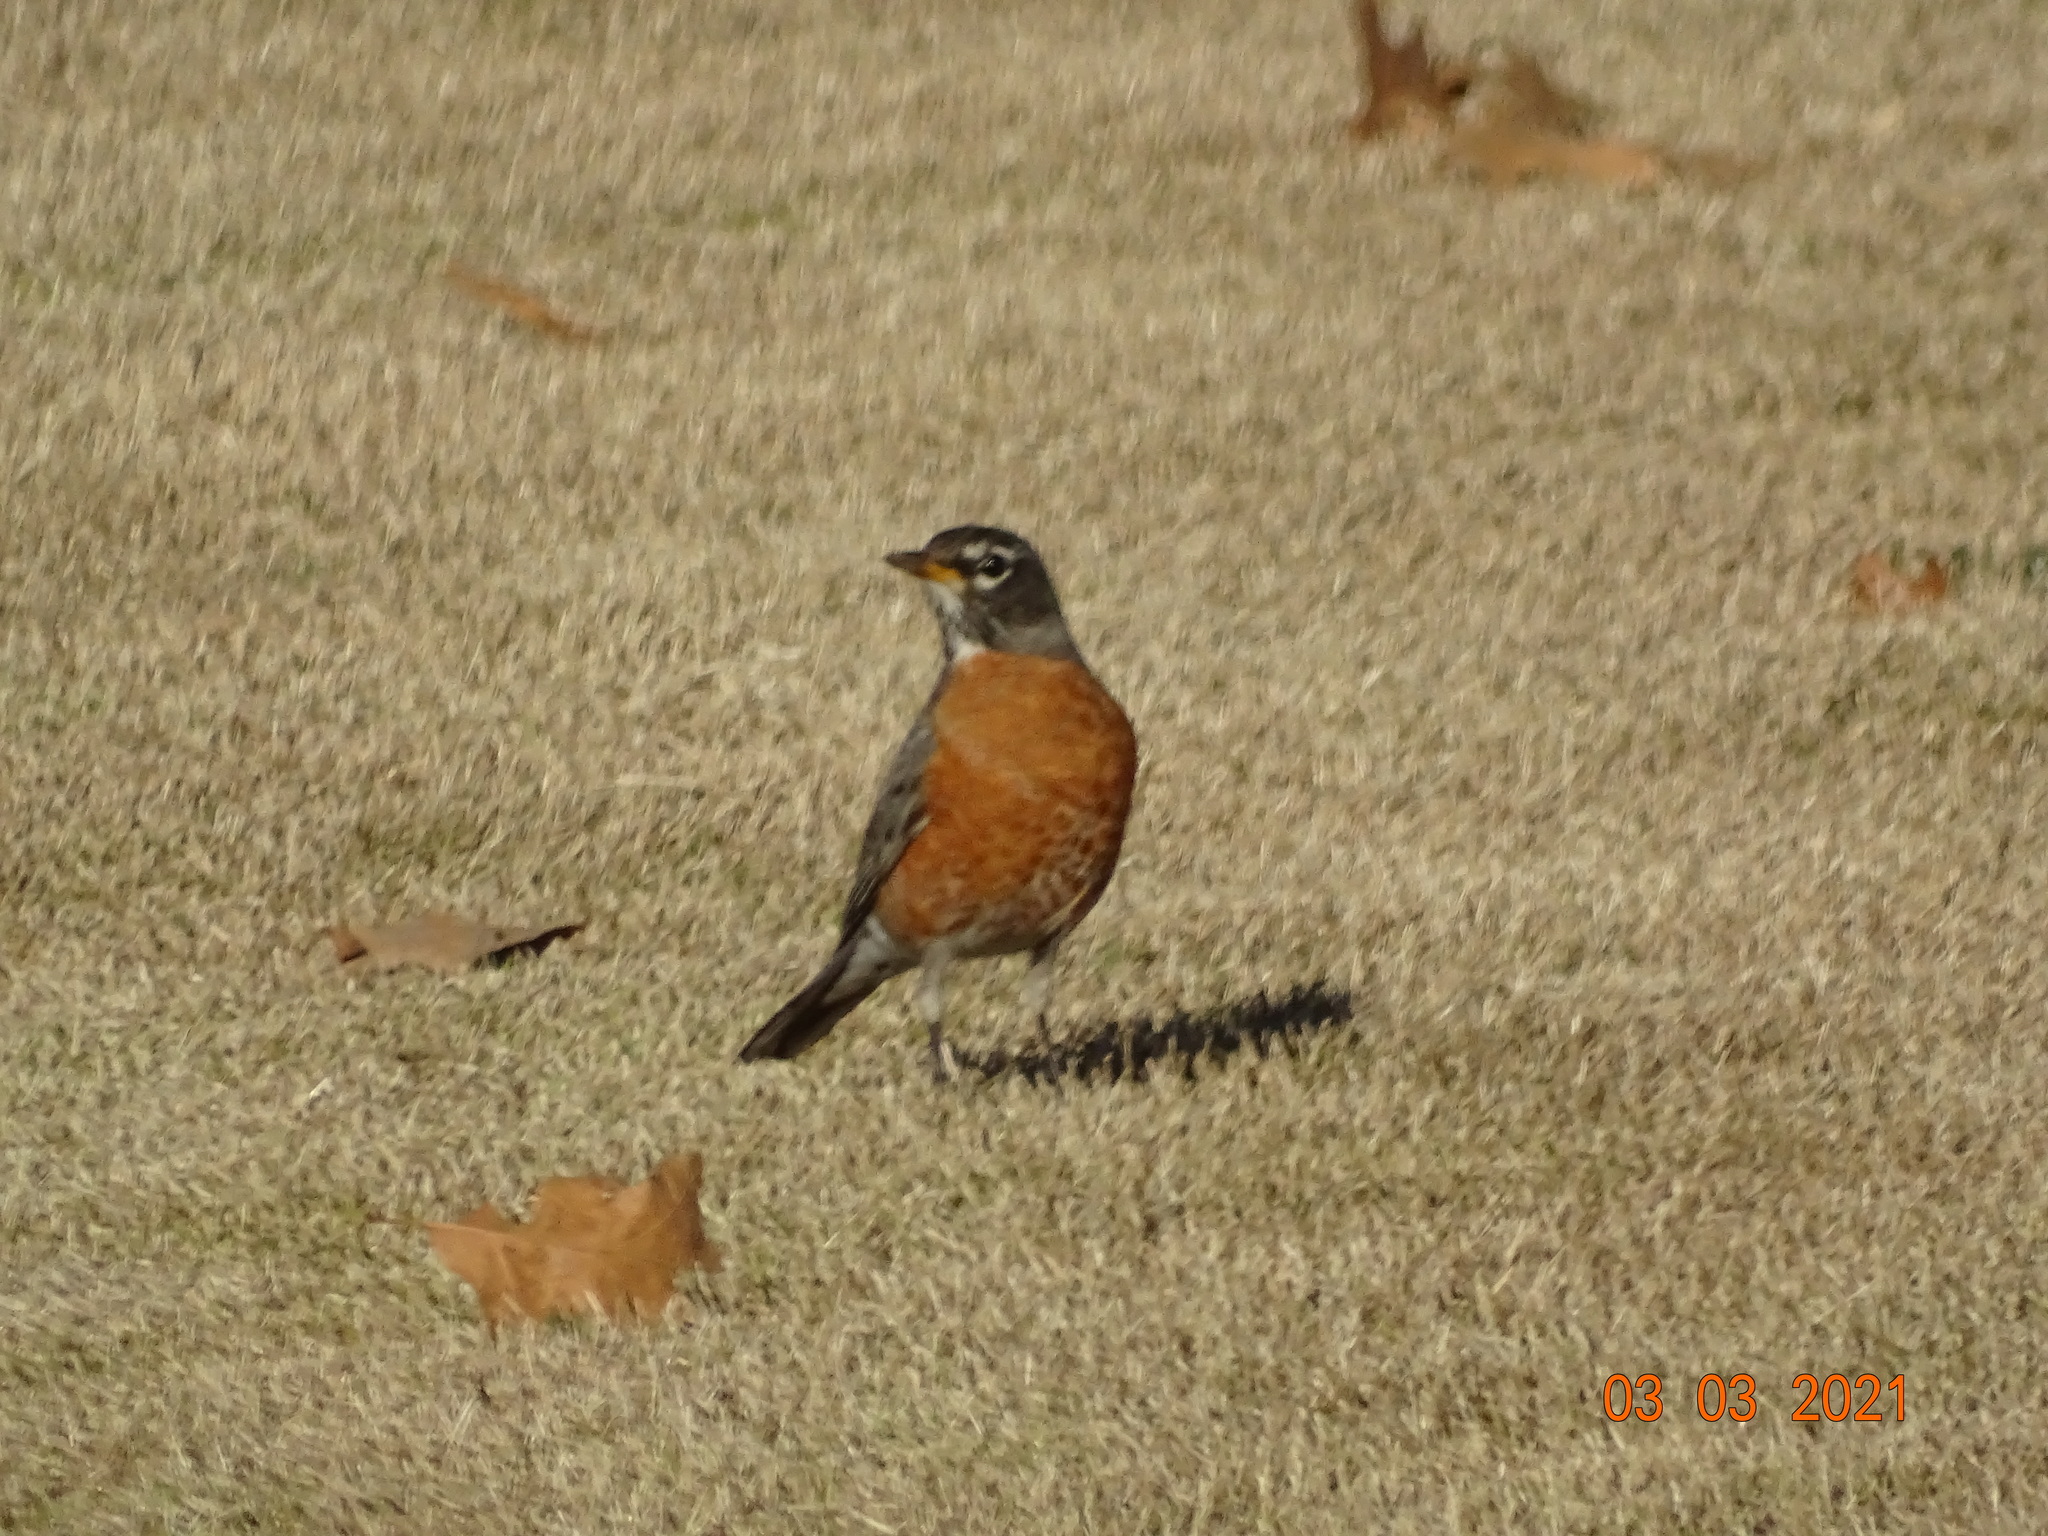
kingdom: Animalia
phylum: Chordata
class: Aves
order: Passeriformes
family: Turdidae
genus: Turdus
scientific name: Turdus migratorius
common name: American robin
